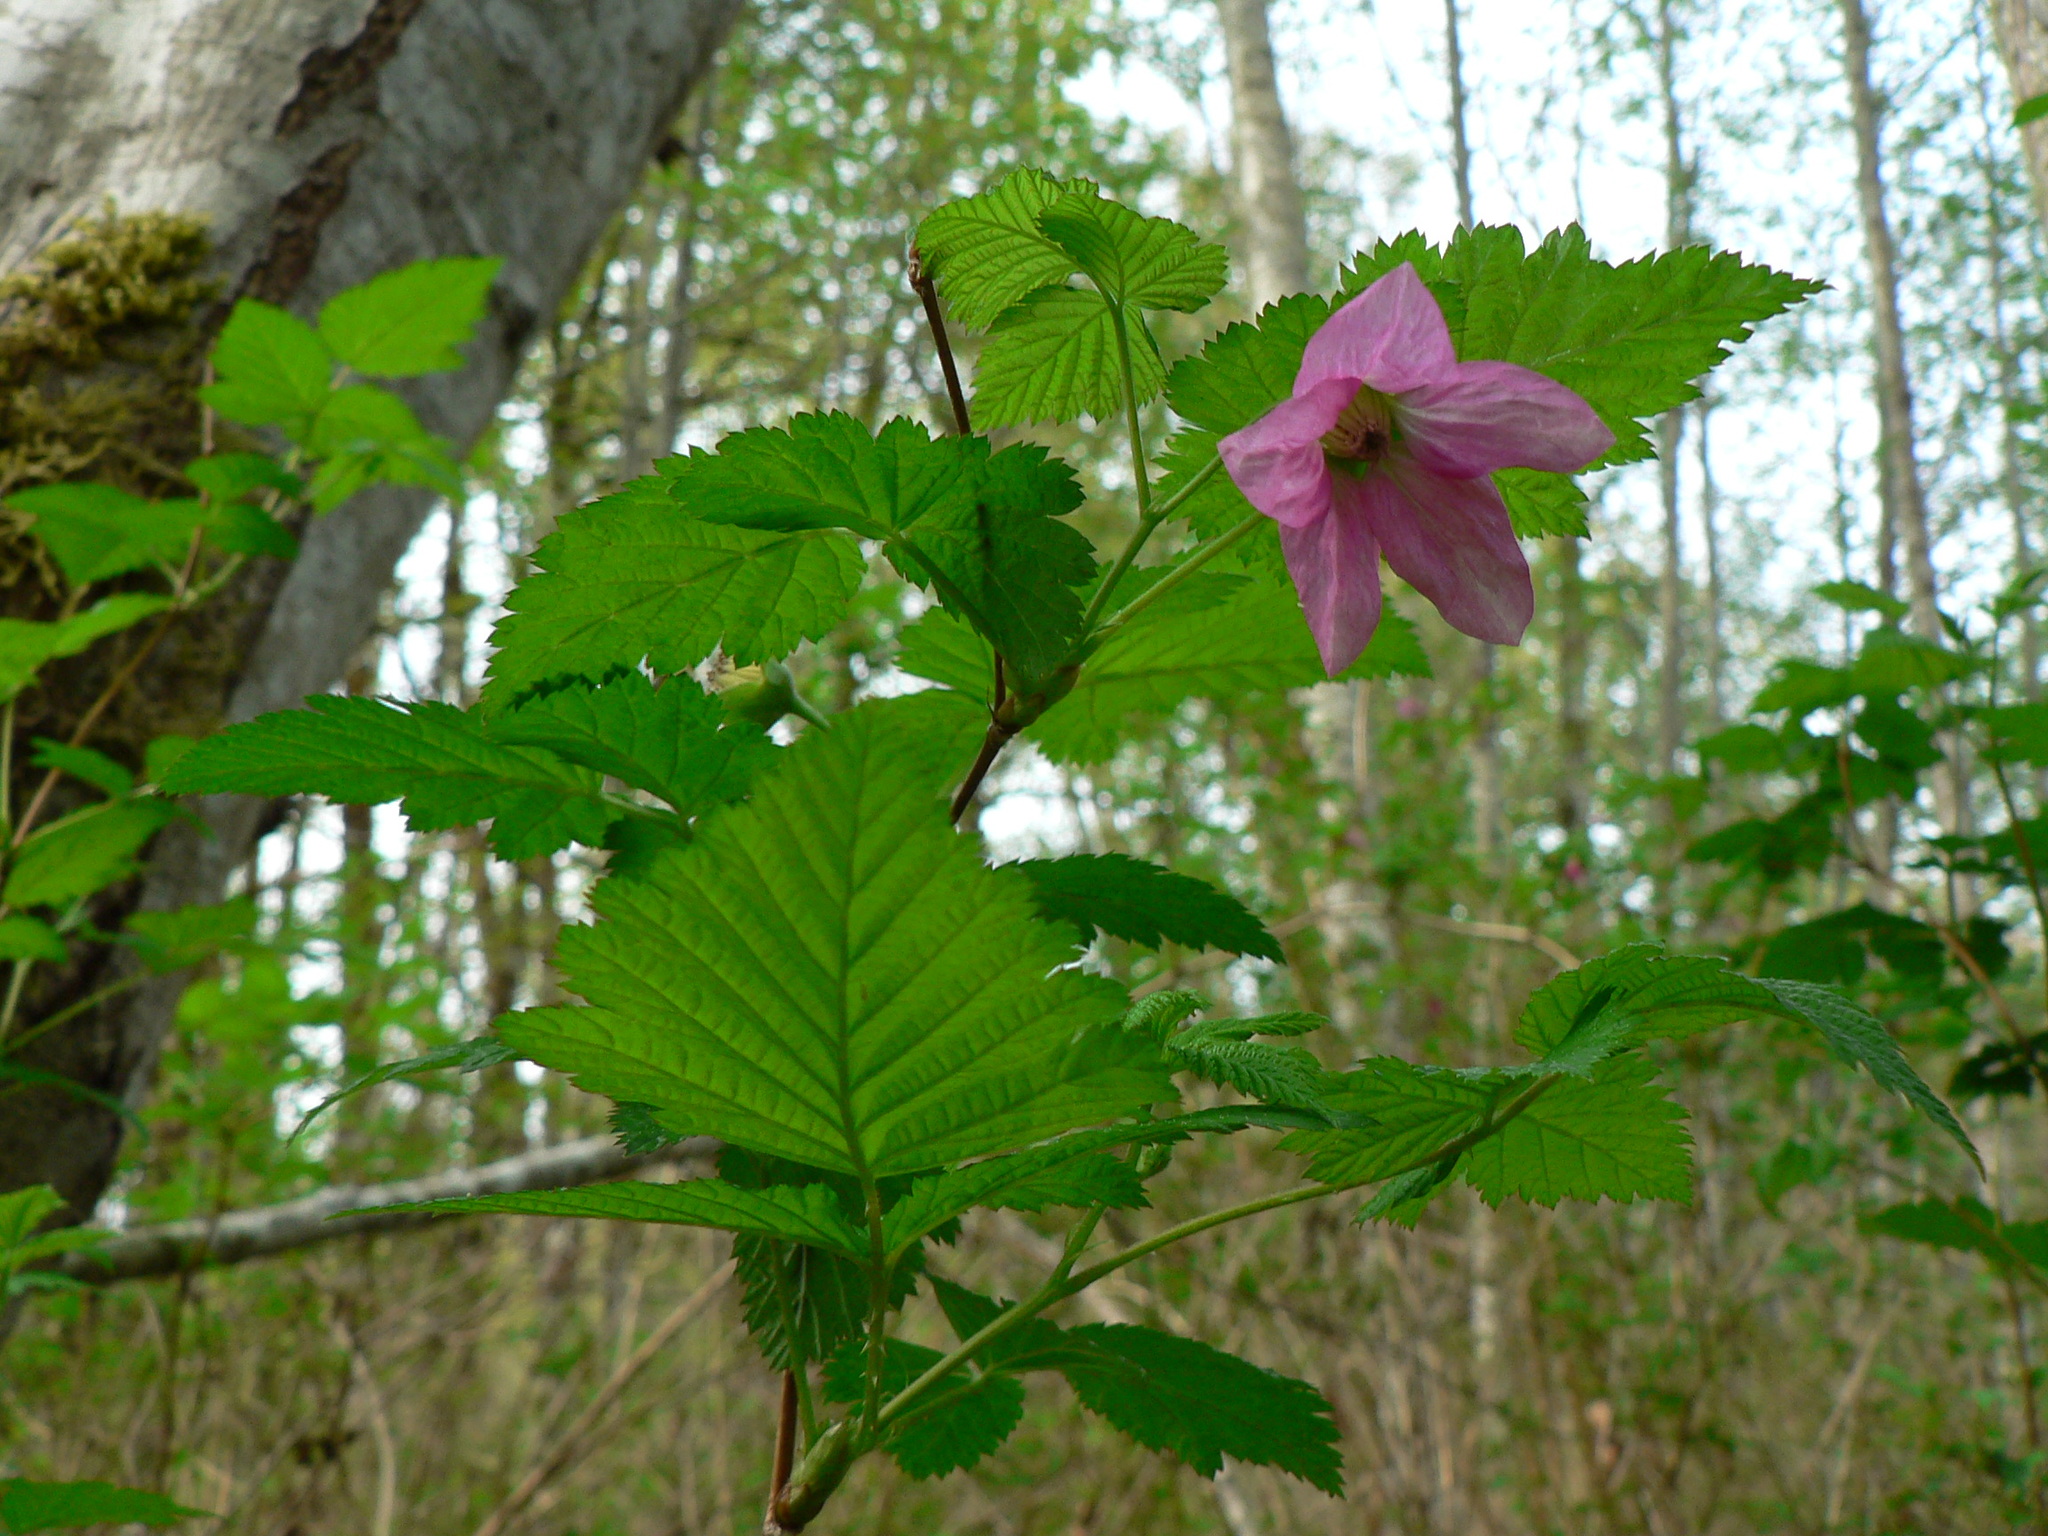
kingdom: Plantae
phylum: Tracheophyta
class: Magnoliopsida
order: Rosales
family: Rosaceae
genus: Rubus
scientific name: Rubus spectabilis
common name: Salmonberry
